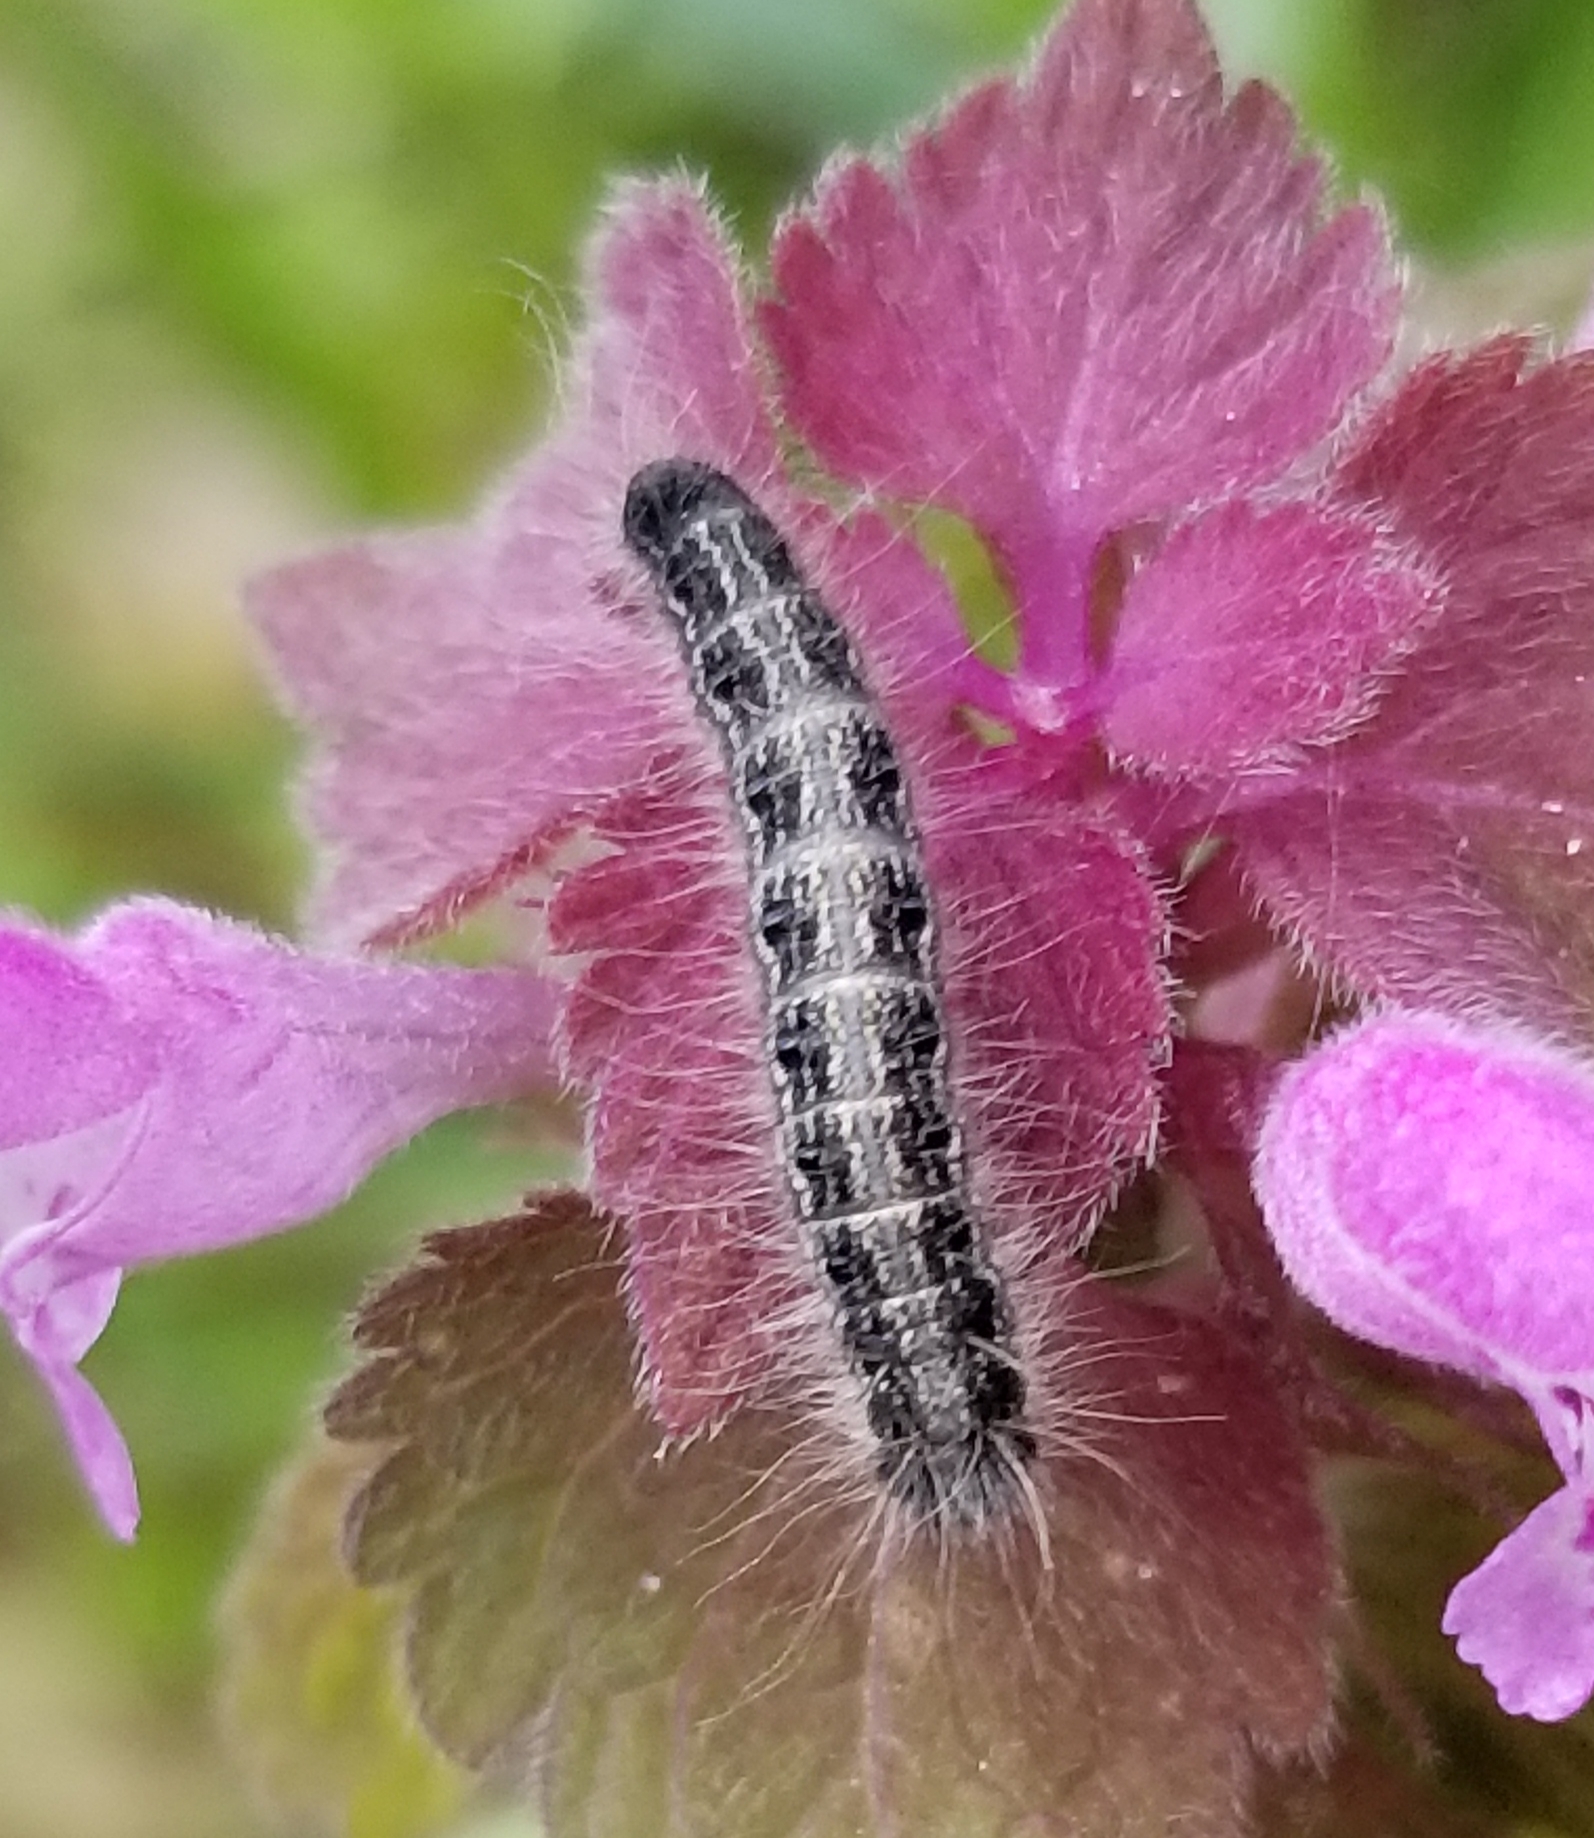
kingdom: Animalia
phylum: Arthropoda
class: Insecta
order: Lepidoptera
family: Lasiocampidae
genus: Malacosoma
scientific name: Malacosoma americana
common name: Eastern tent caterpillar moth
